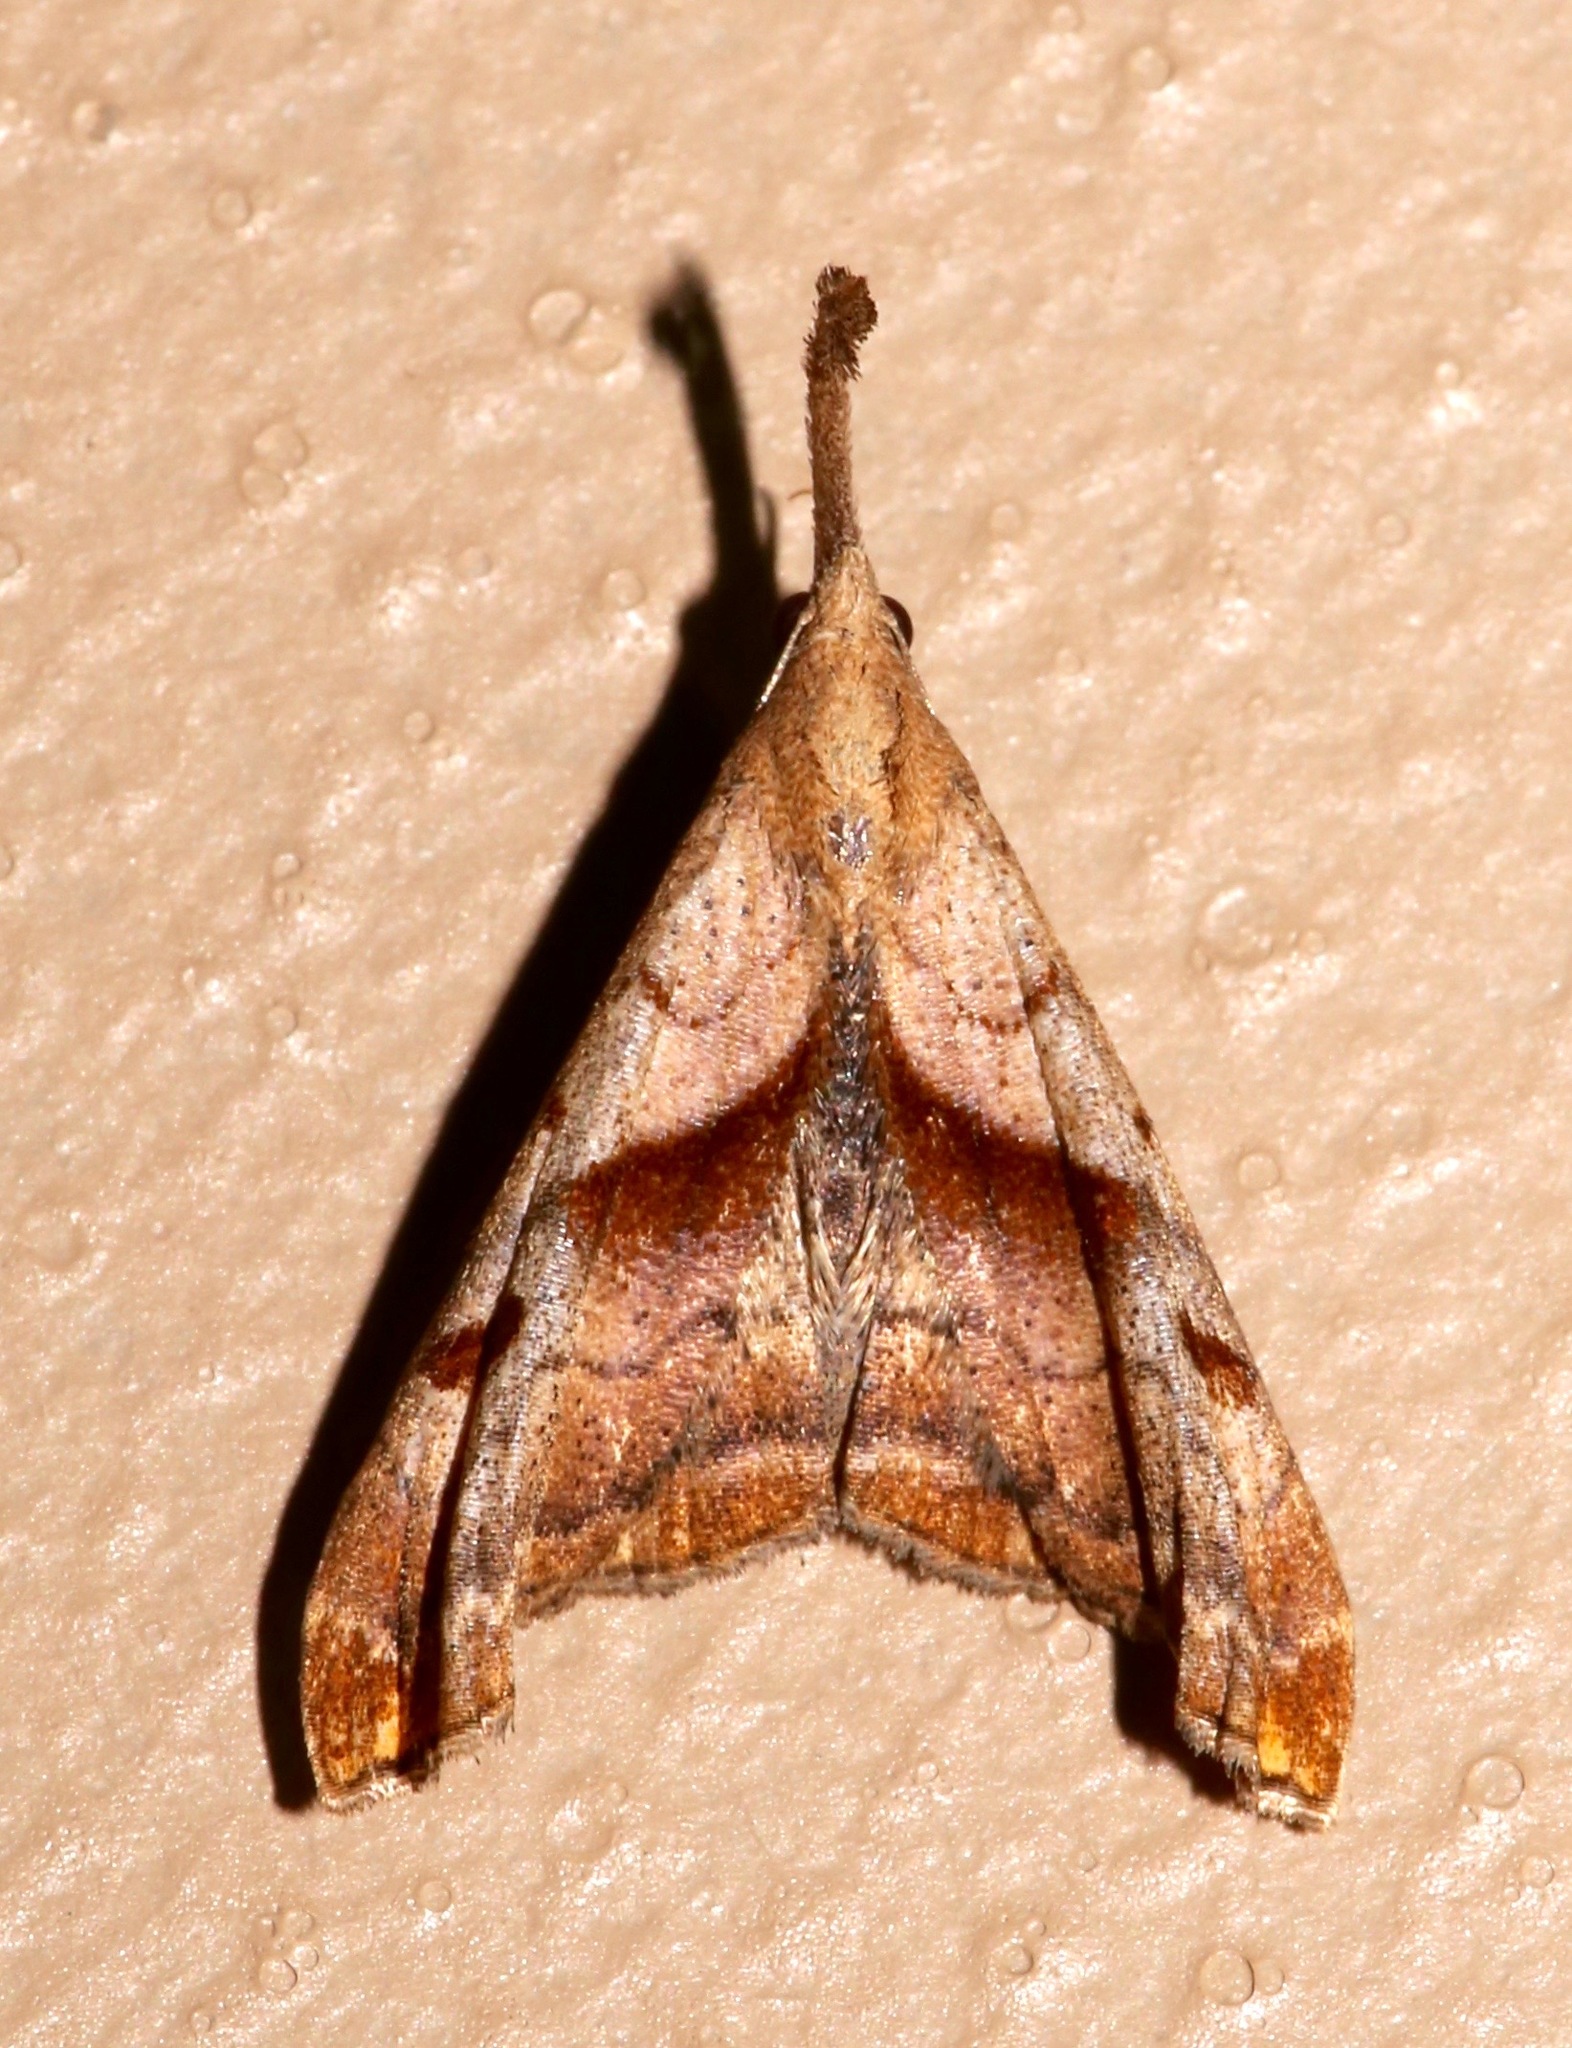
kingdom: Animalia
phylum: Arthropoda
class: Insecta
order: Lepidoptera
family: Erebidae
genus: Palthis
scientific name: Palthis angulalis
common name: Dark-spotted palthis moth
